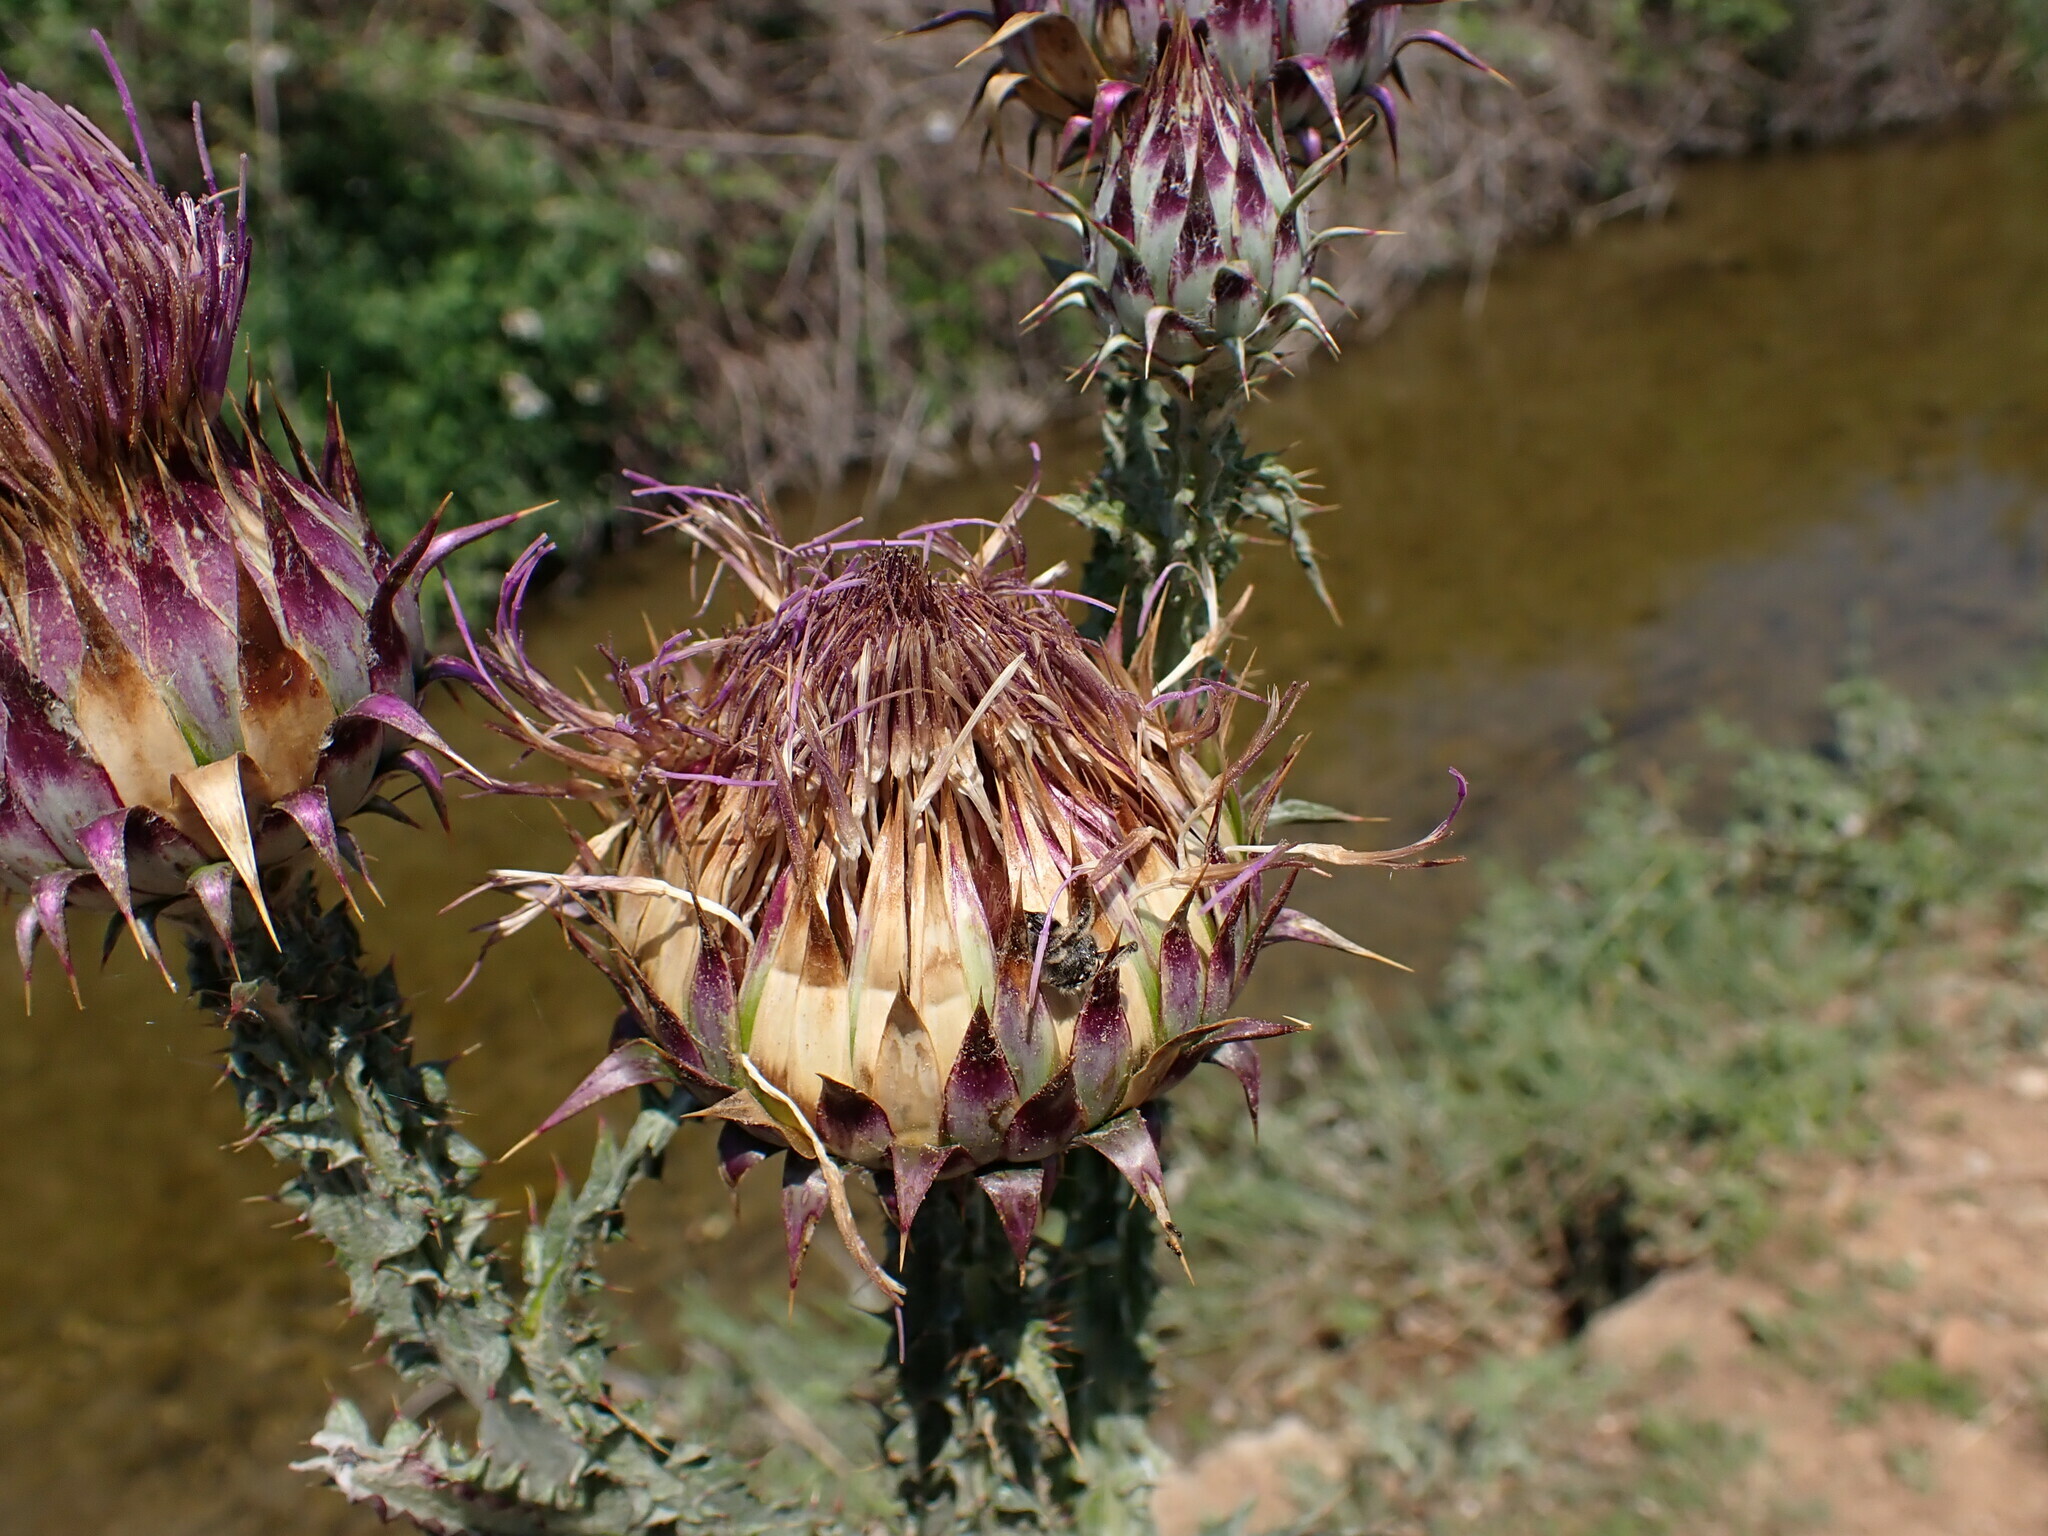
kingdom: Plantae
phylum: Tracheophyta
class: Magnoliopsida
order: Asterales
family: Asteraceae
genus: Onopordum
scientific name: Onopordum illyricum
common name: Illyrian thistle
